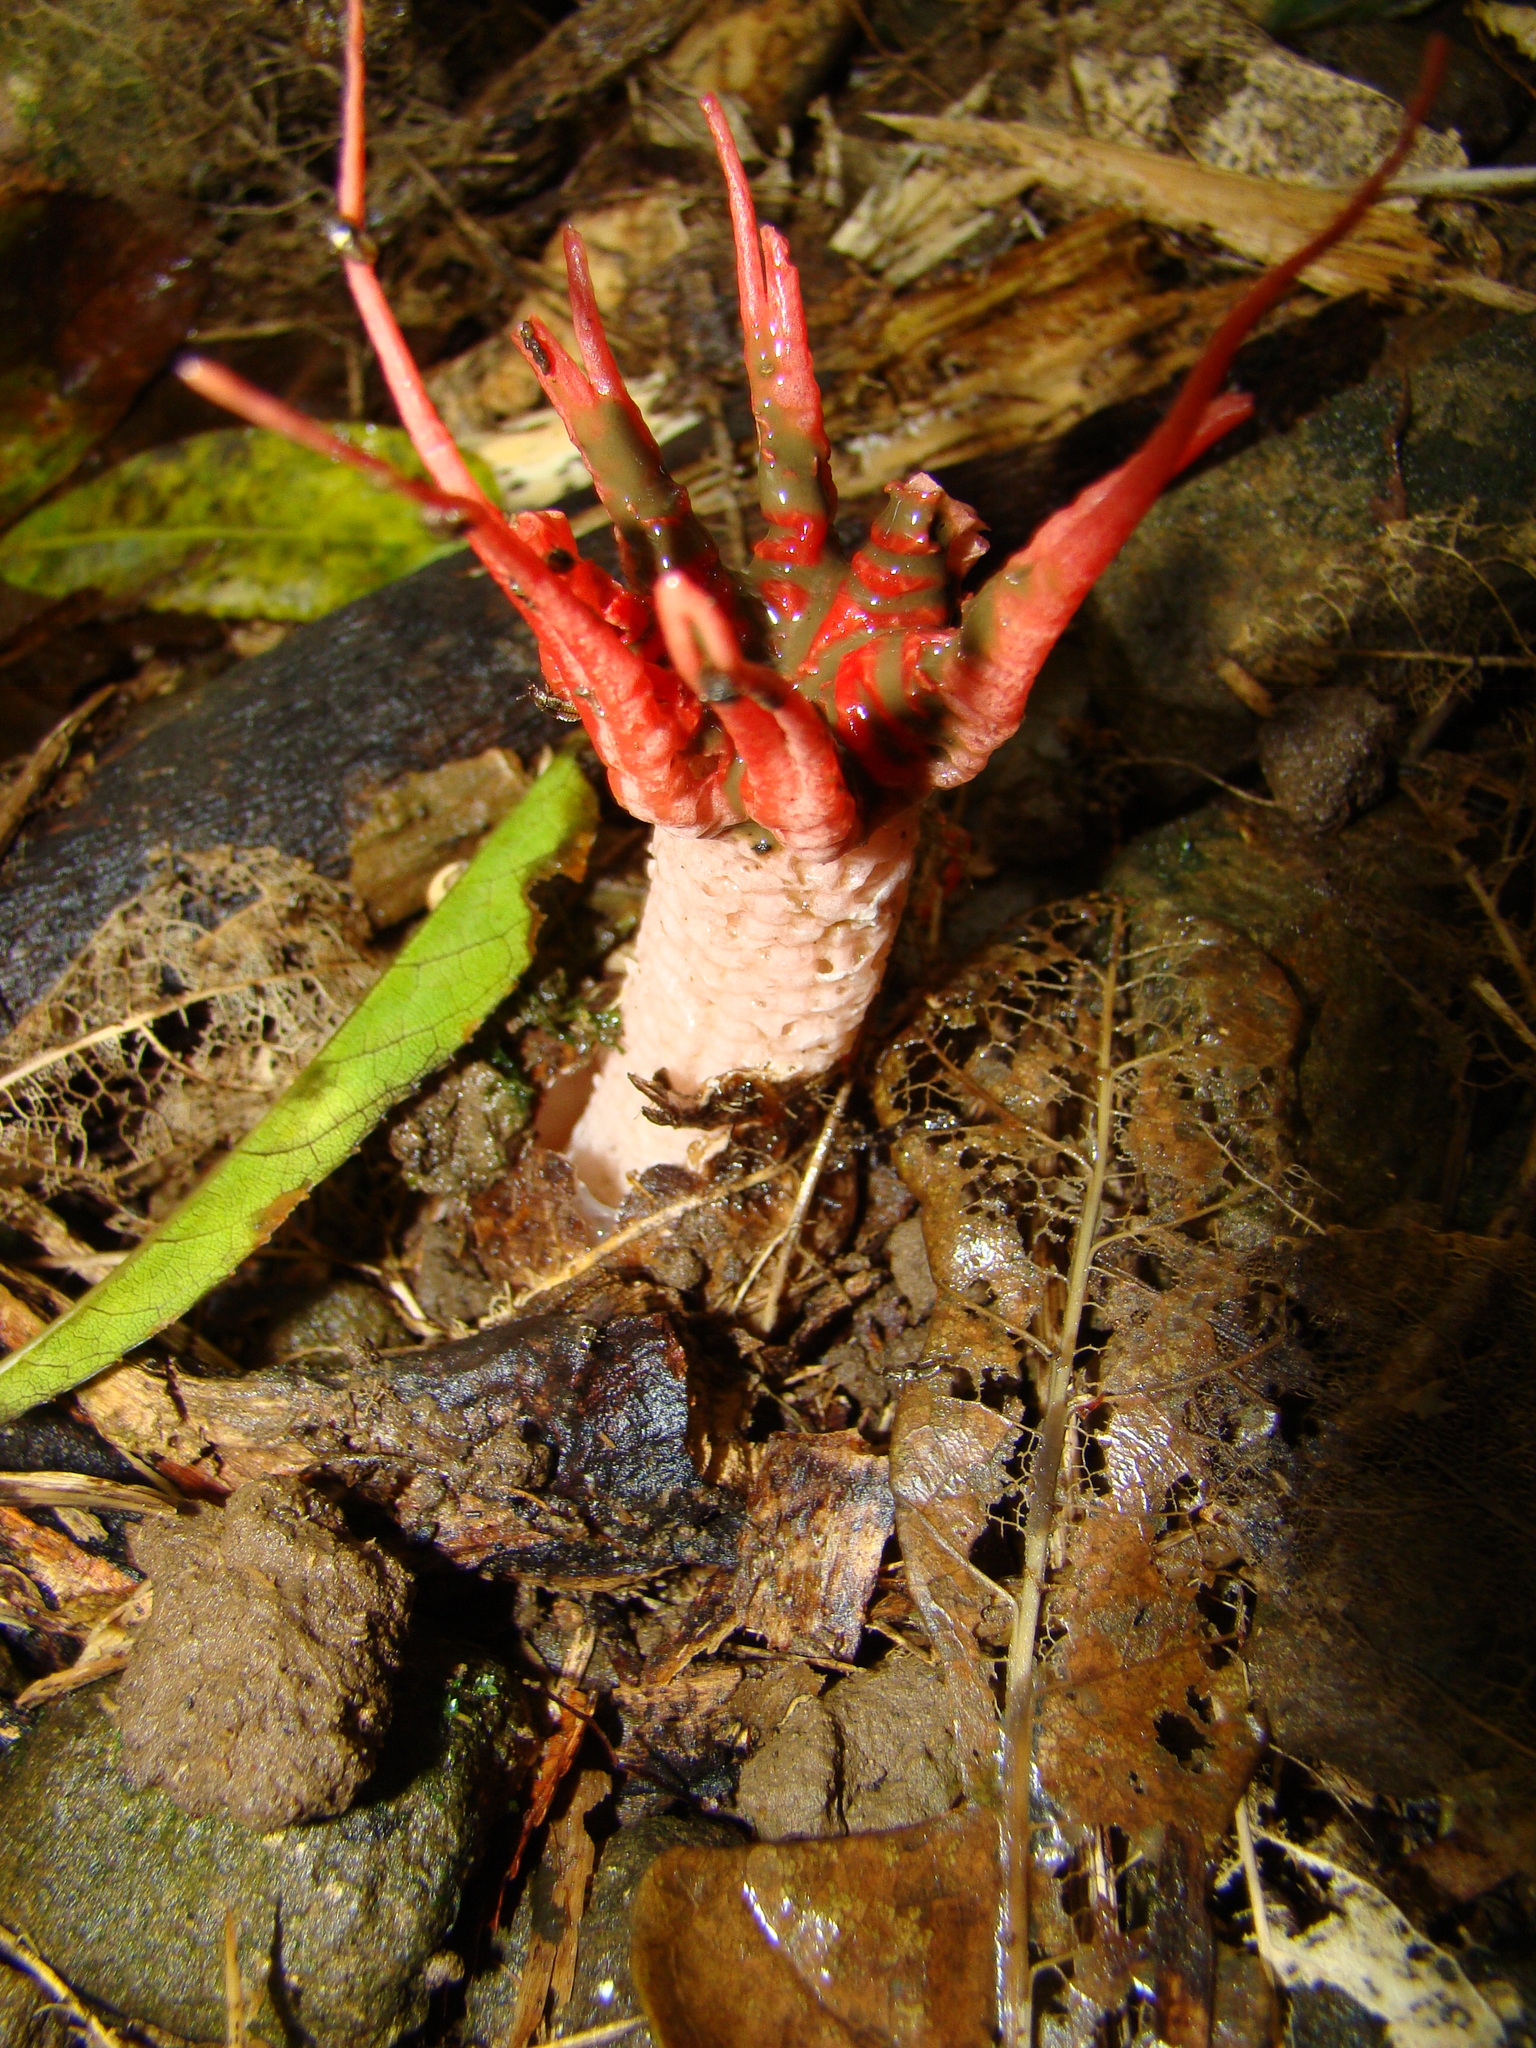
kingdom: Fungi
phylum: Basidiomycota
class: Agaricomycetes
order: Phallales
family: Phallaceae
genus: Aseroe
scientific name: Aseroe rubra
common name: Starfish fungus
